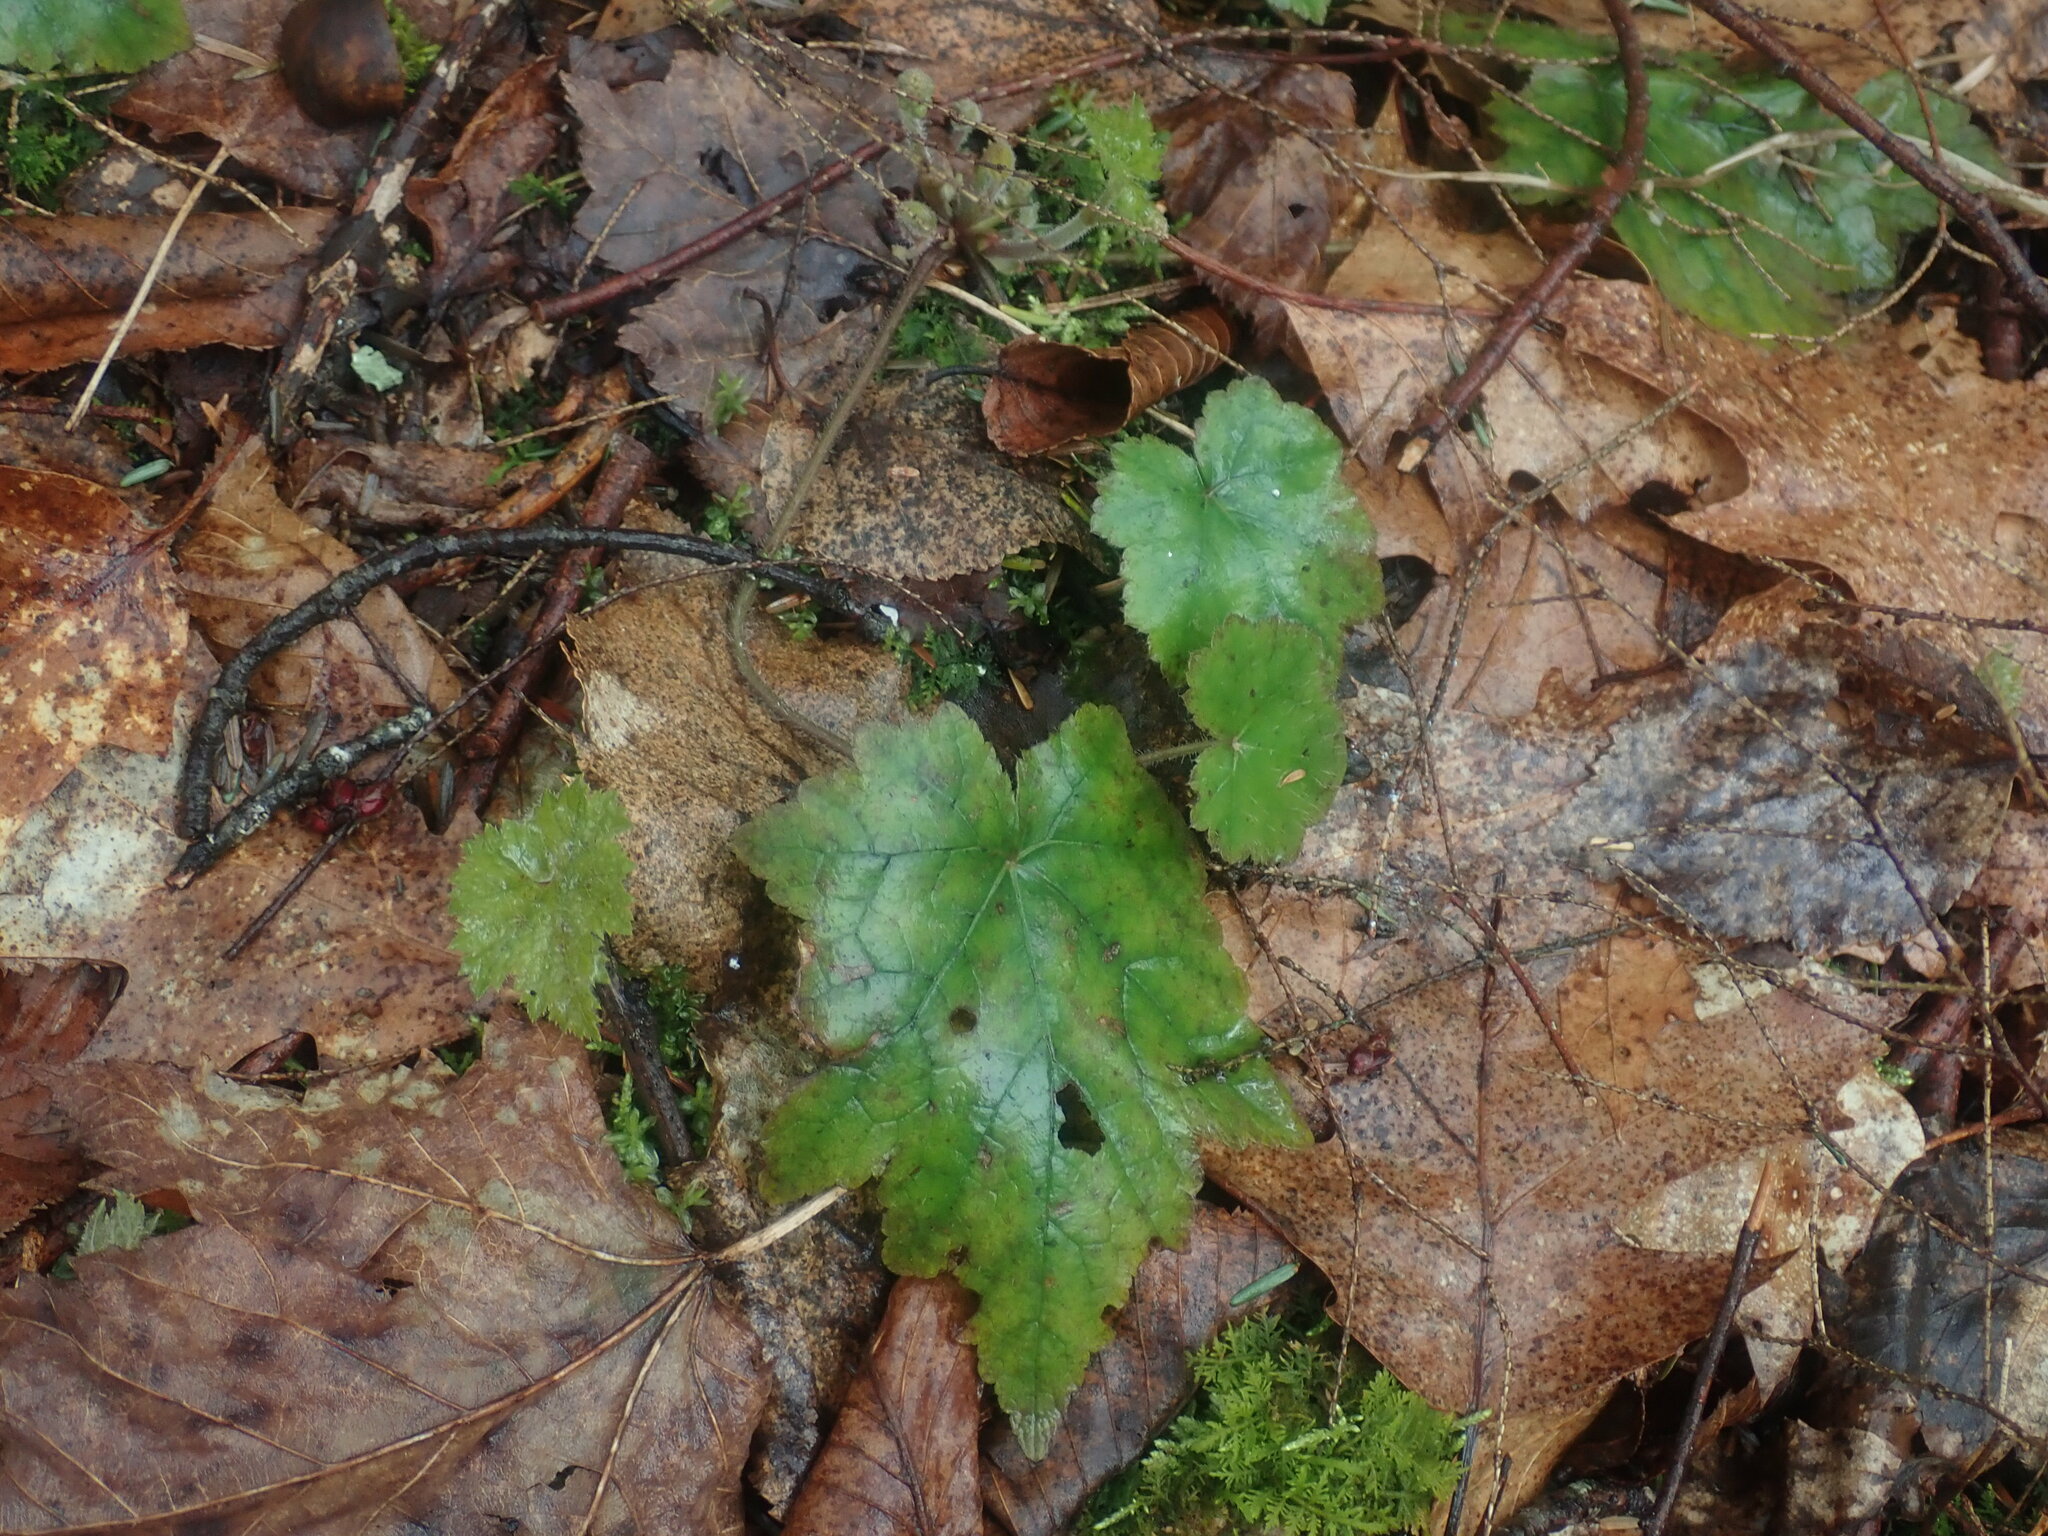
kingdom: Plantae
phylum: Tracheophyta
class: Magnoliopsida
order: Saxifragales
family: Saxifragaceae
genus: Mitella
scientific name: Mitella diphylla
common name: Coolwort
